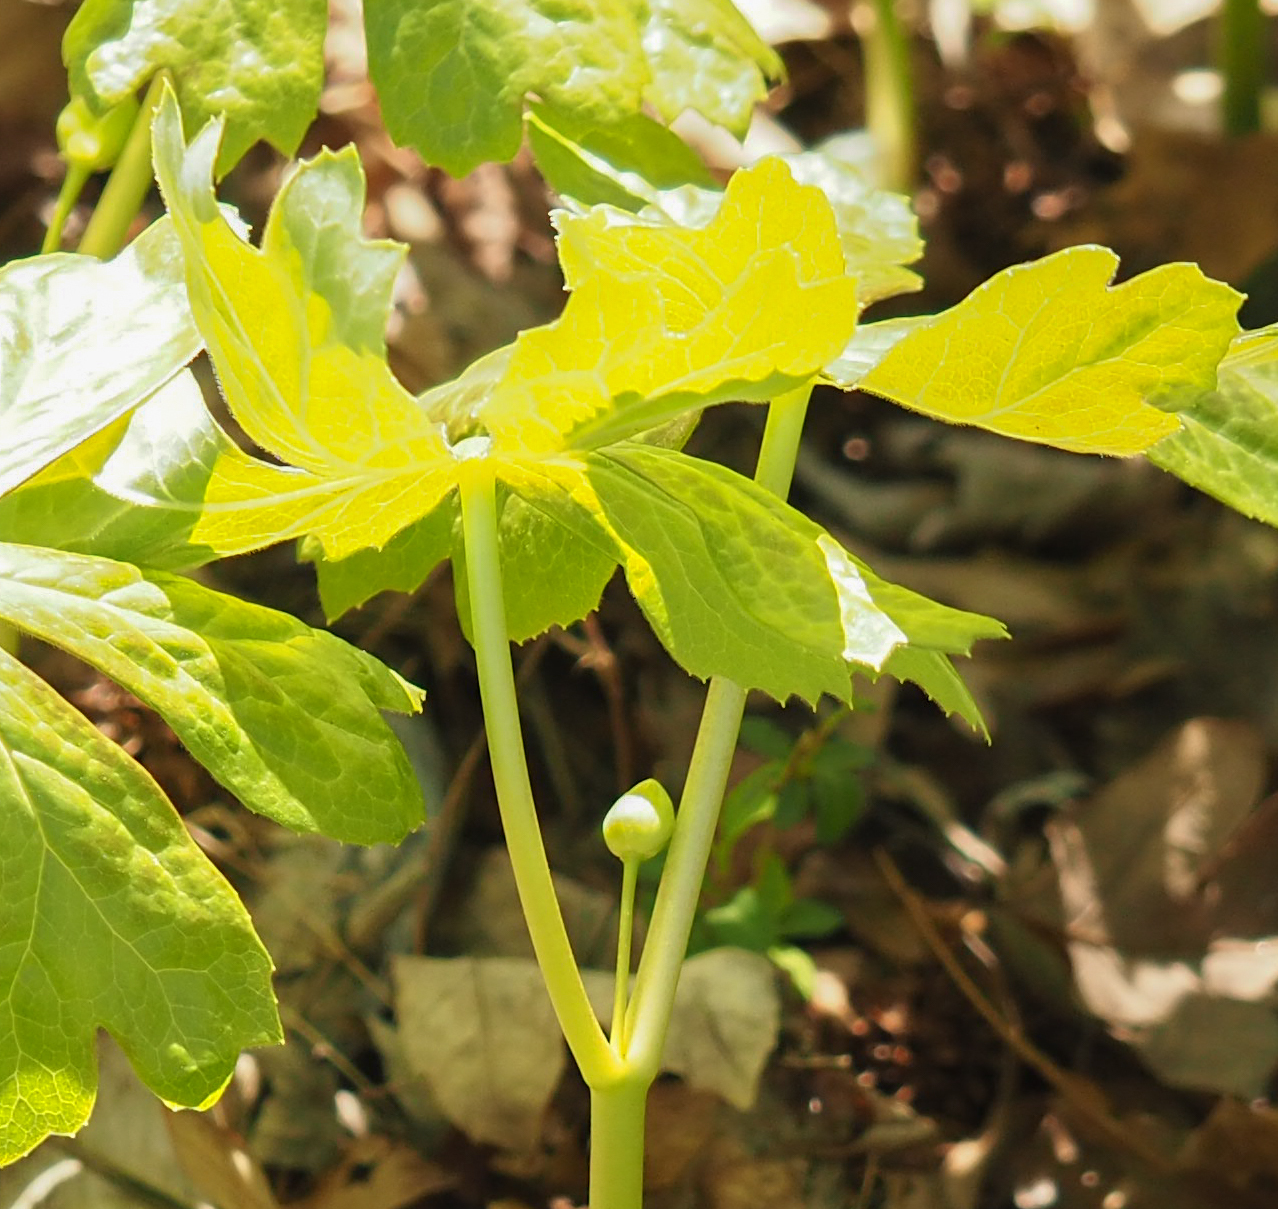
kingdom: Plantae
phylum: Tracheophyta
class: Magnoliopsida
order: Ranunculales
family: Berberidaceae
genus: Podophyllum
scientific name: Podophyllum peltatum
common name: Wild mandrake
